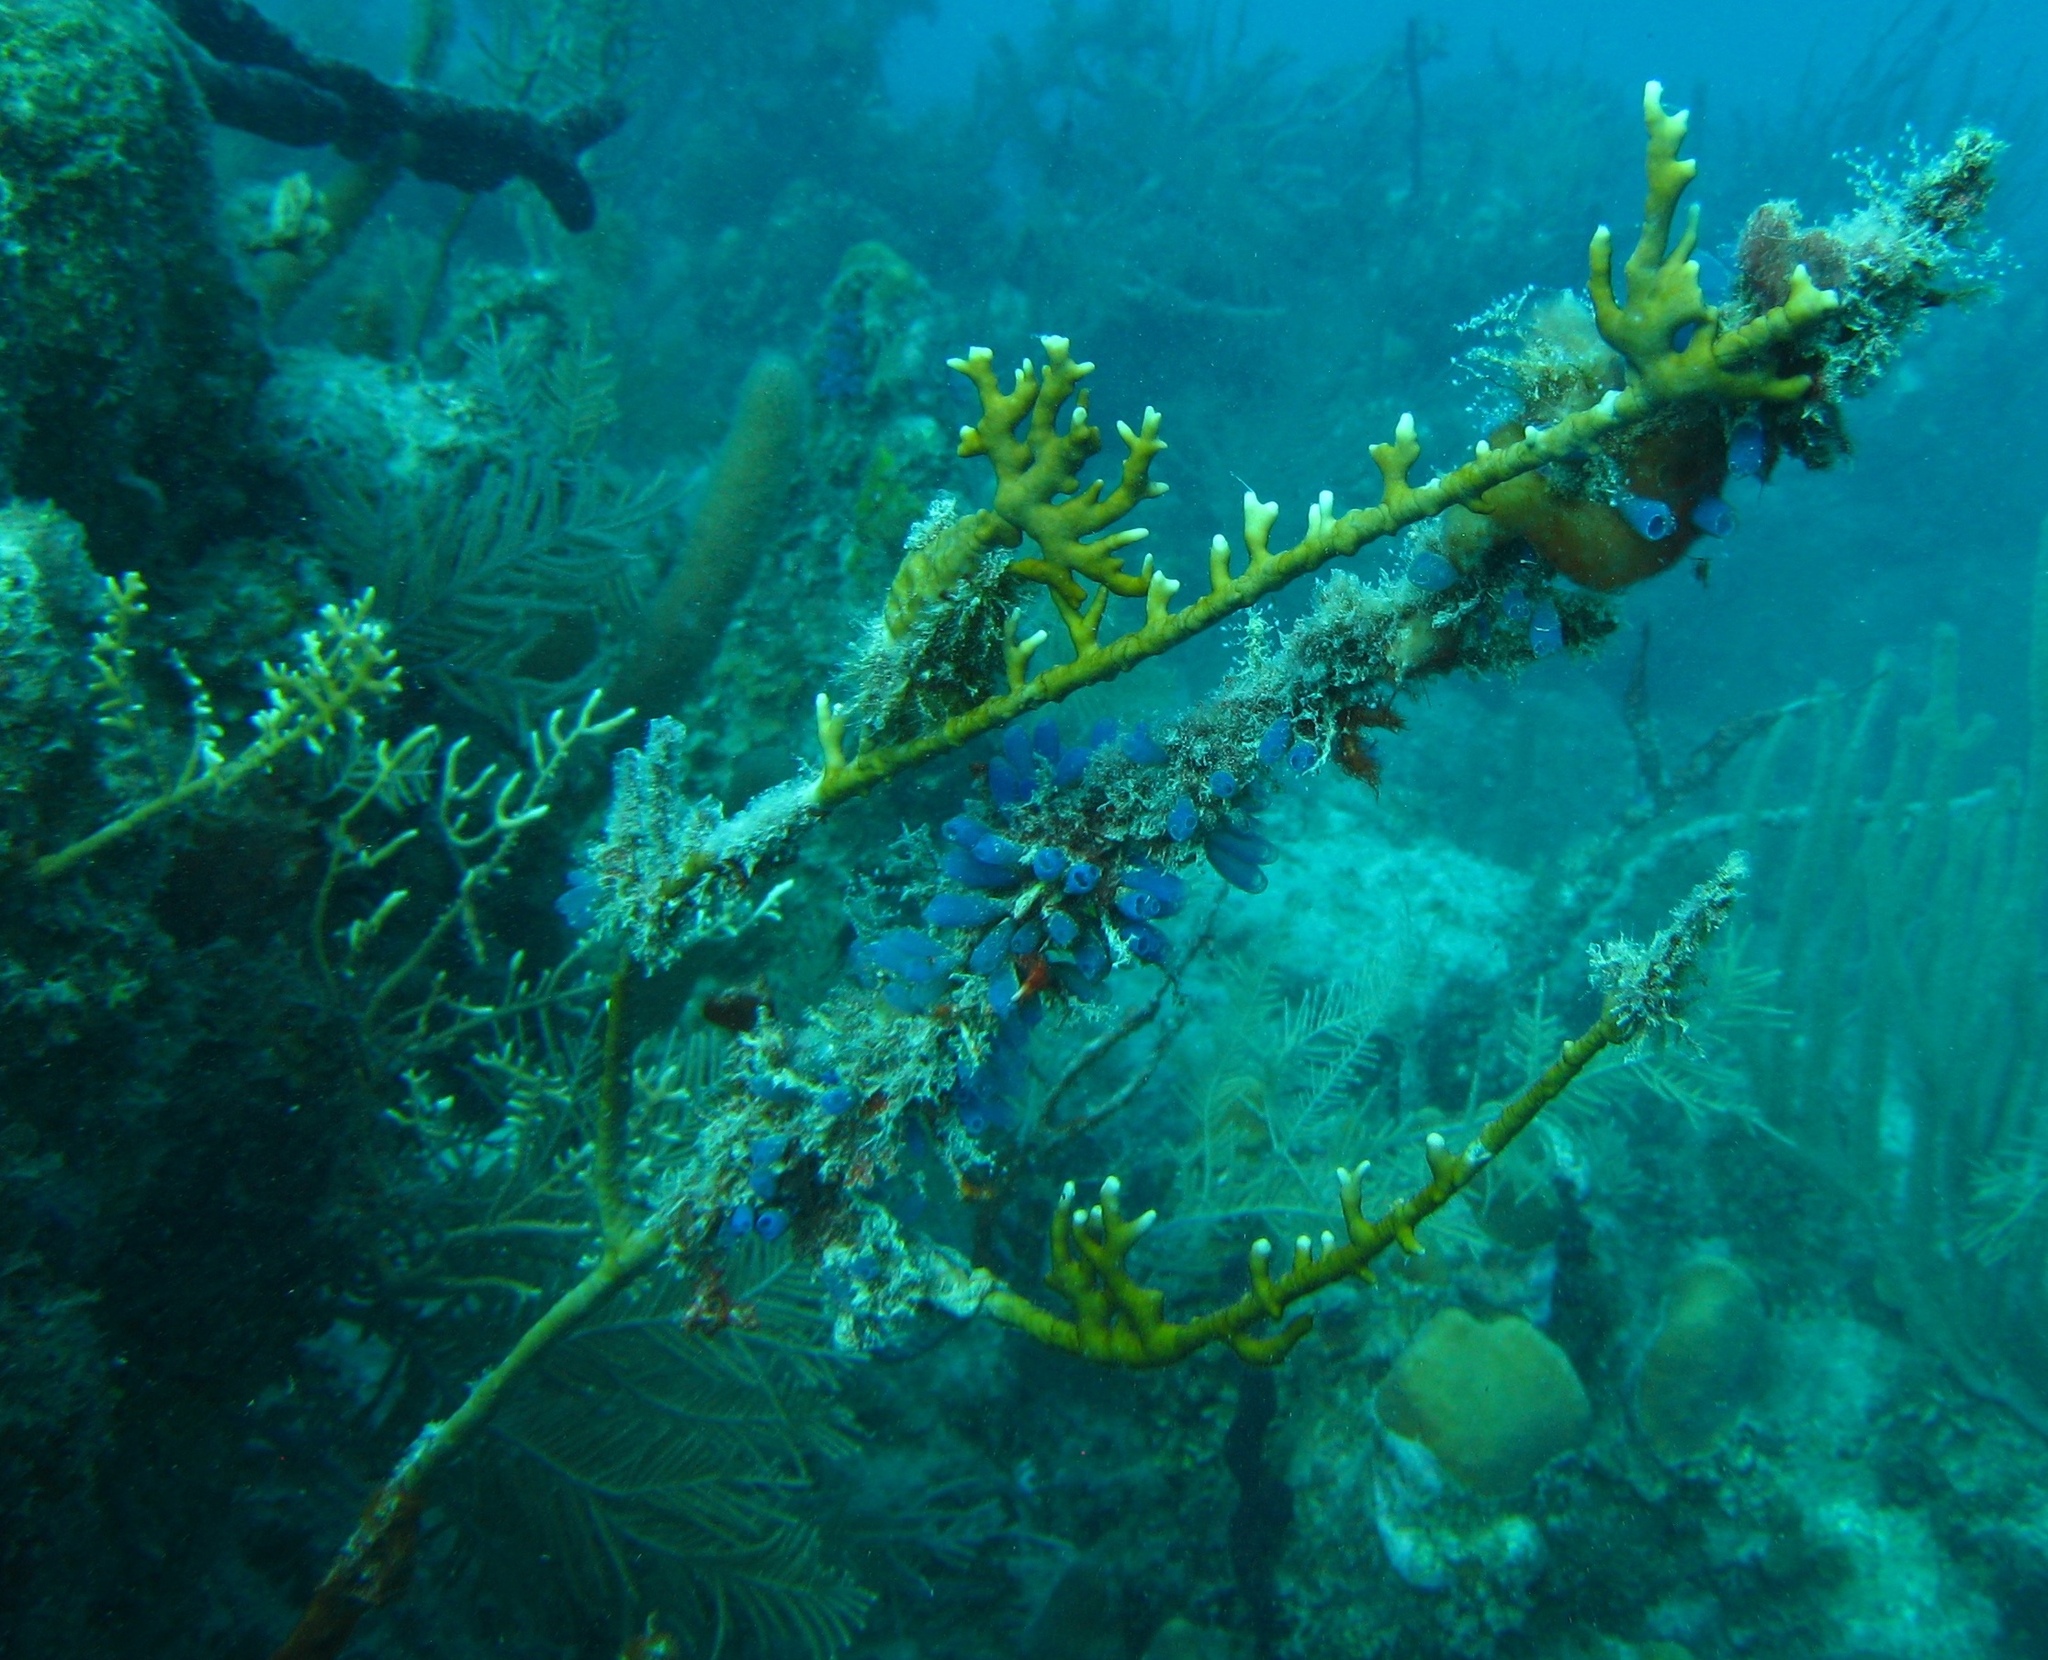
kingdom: Animalia
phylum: Cnidaria
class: Hydrozoa
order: Anthoathecata
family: Milleporidae
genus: Millepora
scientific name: Millepora alcicornis
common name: Branching fire coral
